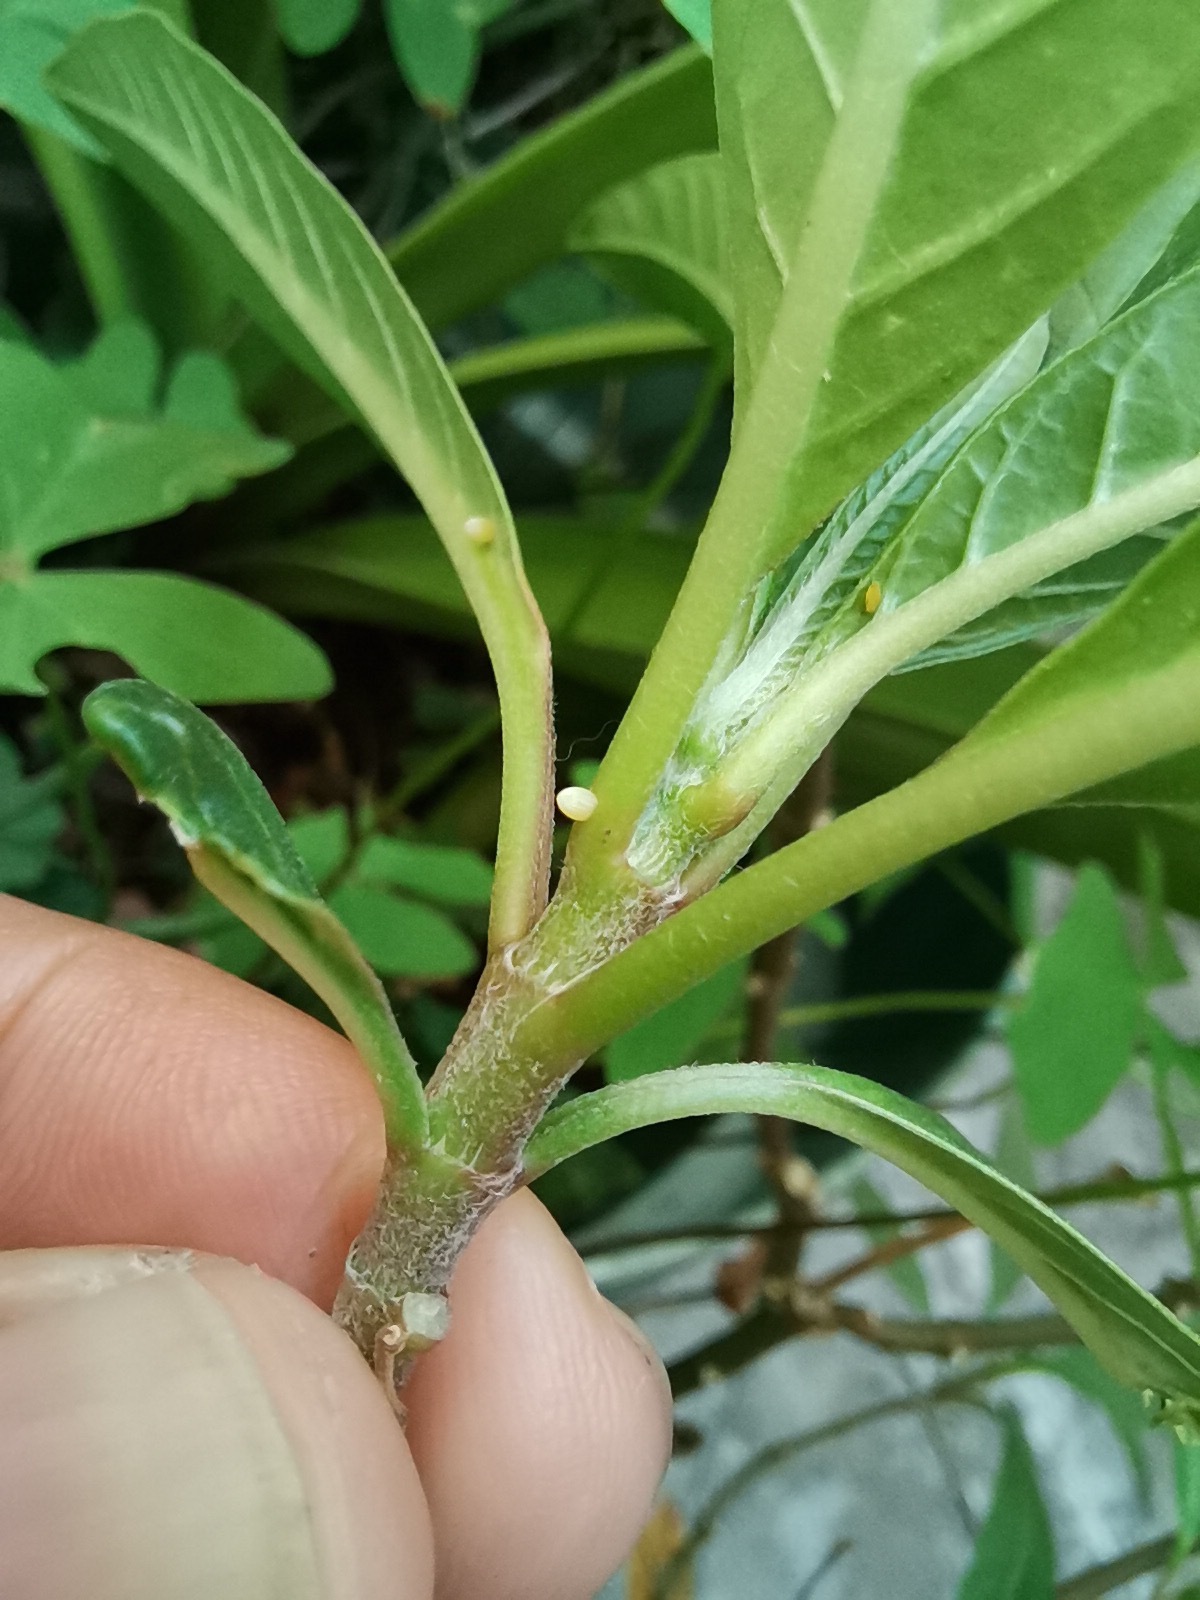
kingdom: Animalia
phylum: Arthropoda
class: Insecta
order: Lepidoptera
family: Nymphalidae
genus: Danaus
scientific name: Danaus plexippus
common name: Monarch
